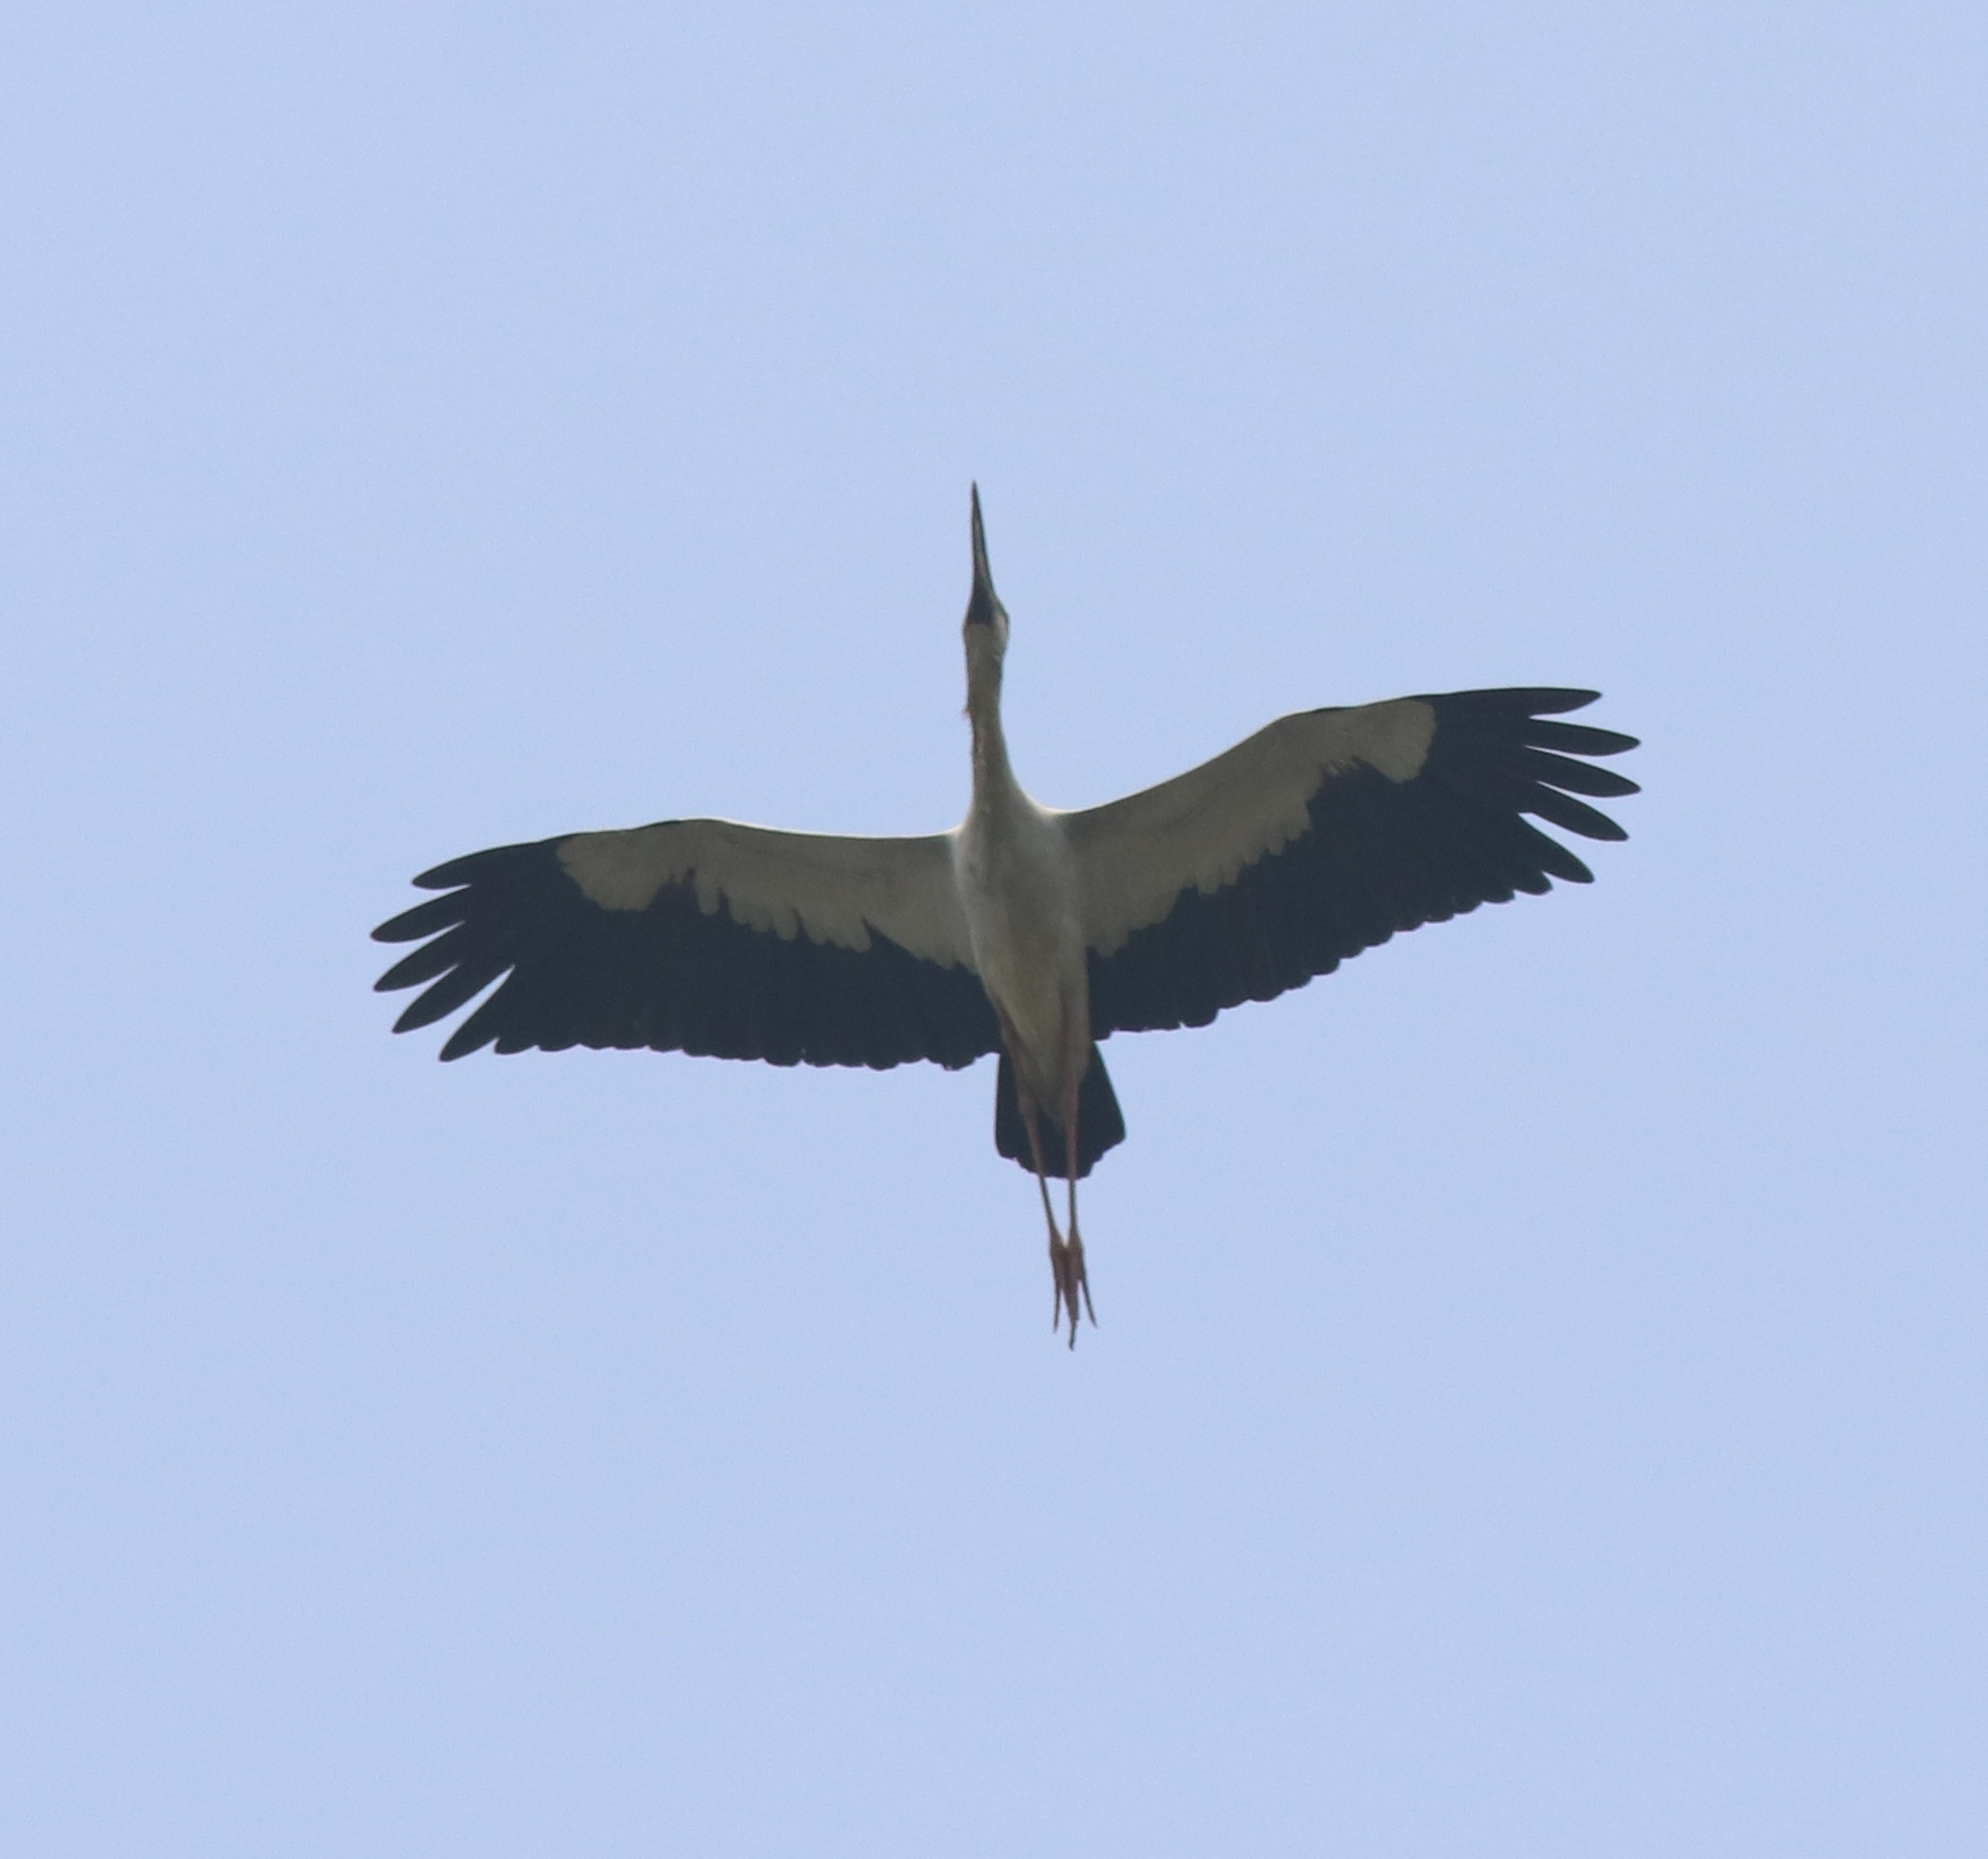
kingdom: Animalia
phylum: Chordata
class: Aves
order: Ciconiiformes
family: Ciconiidae
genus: Anastomus
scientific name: Anastomus oscitans
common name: Asian openbill
